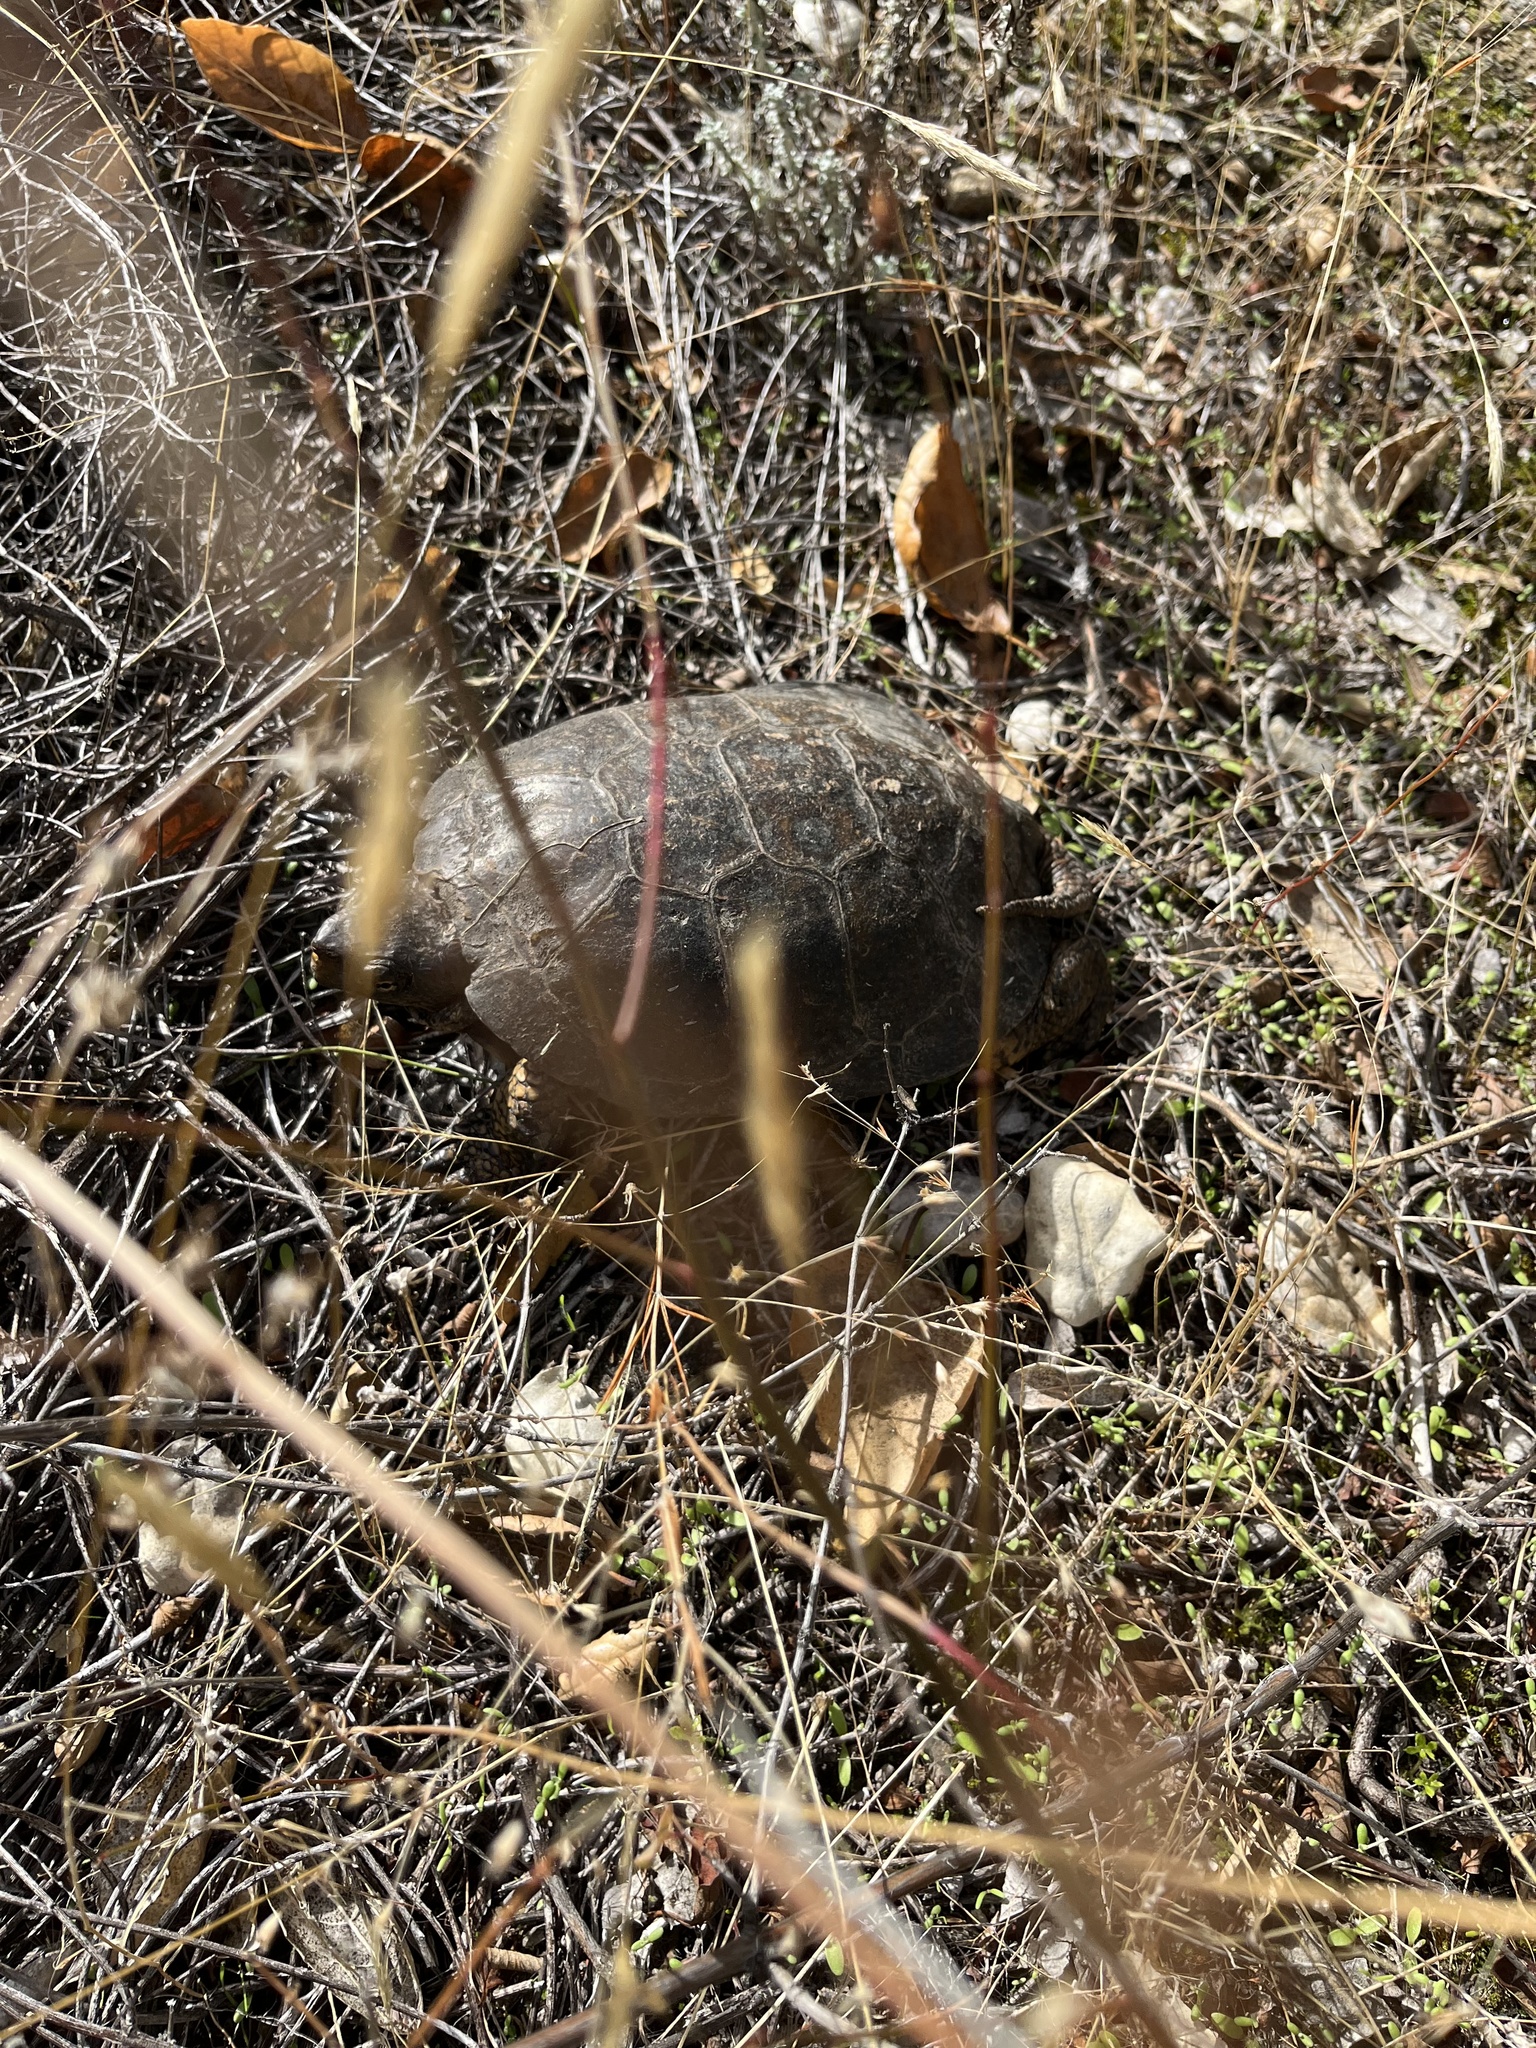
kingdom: Animalia
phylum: Chordata
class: Testudines
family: Emydidae
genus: Actinemys
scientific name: Actinemys marmorata
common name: Western pond turtle
